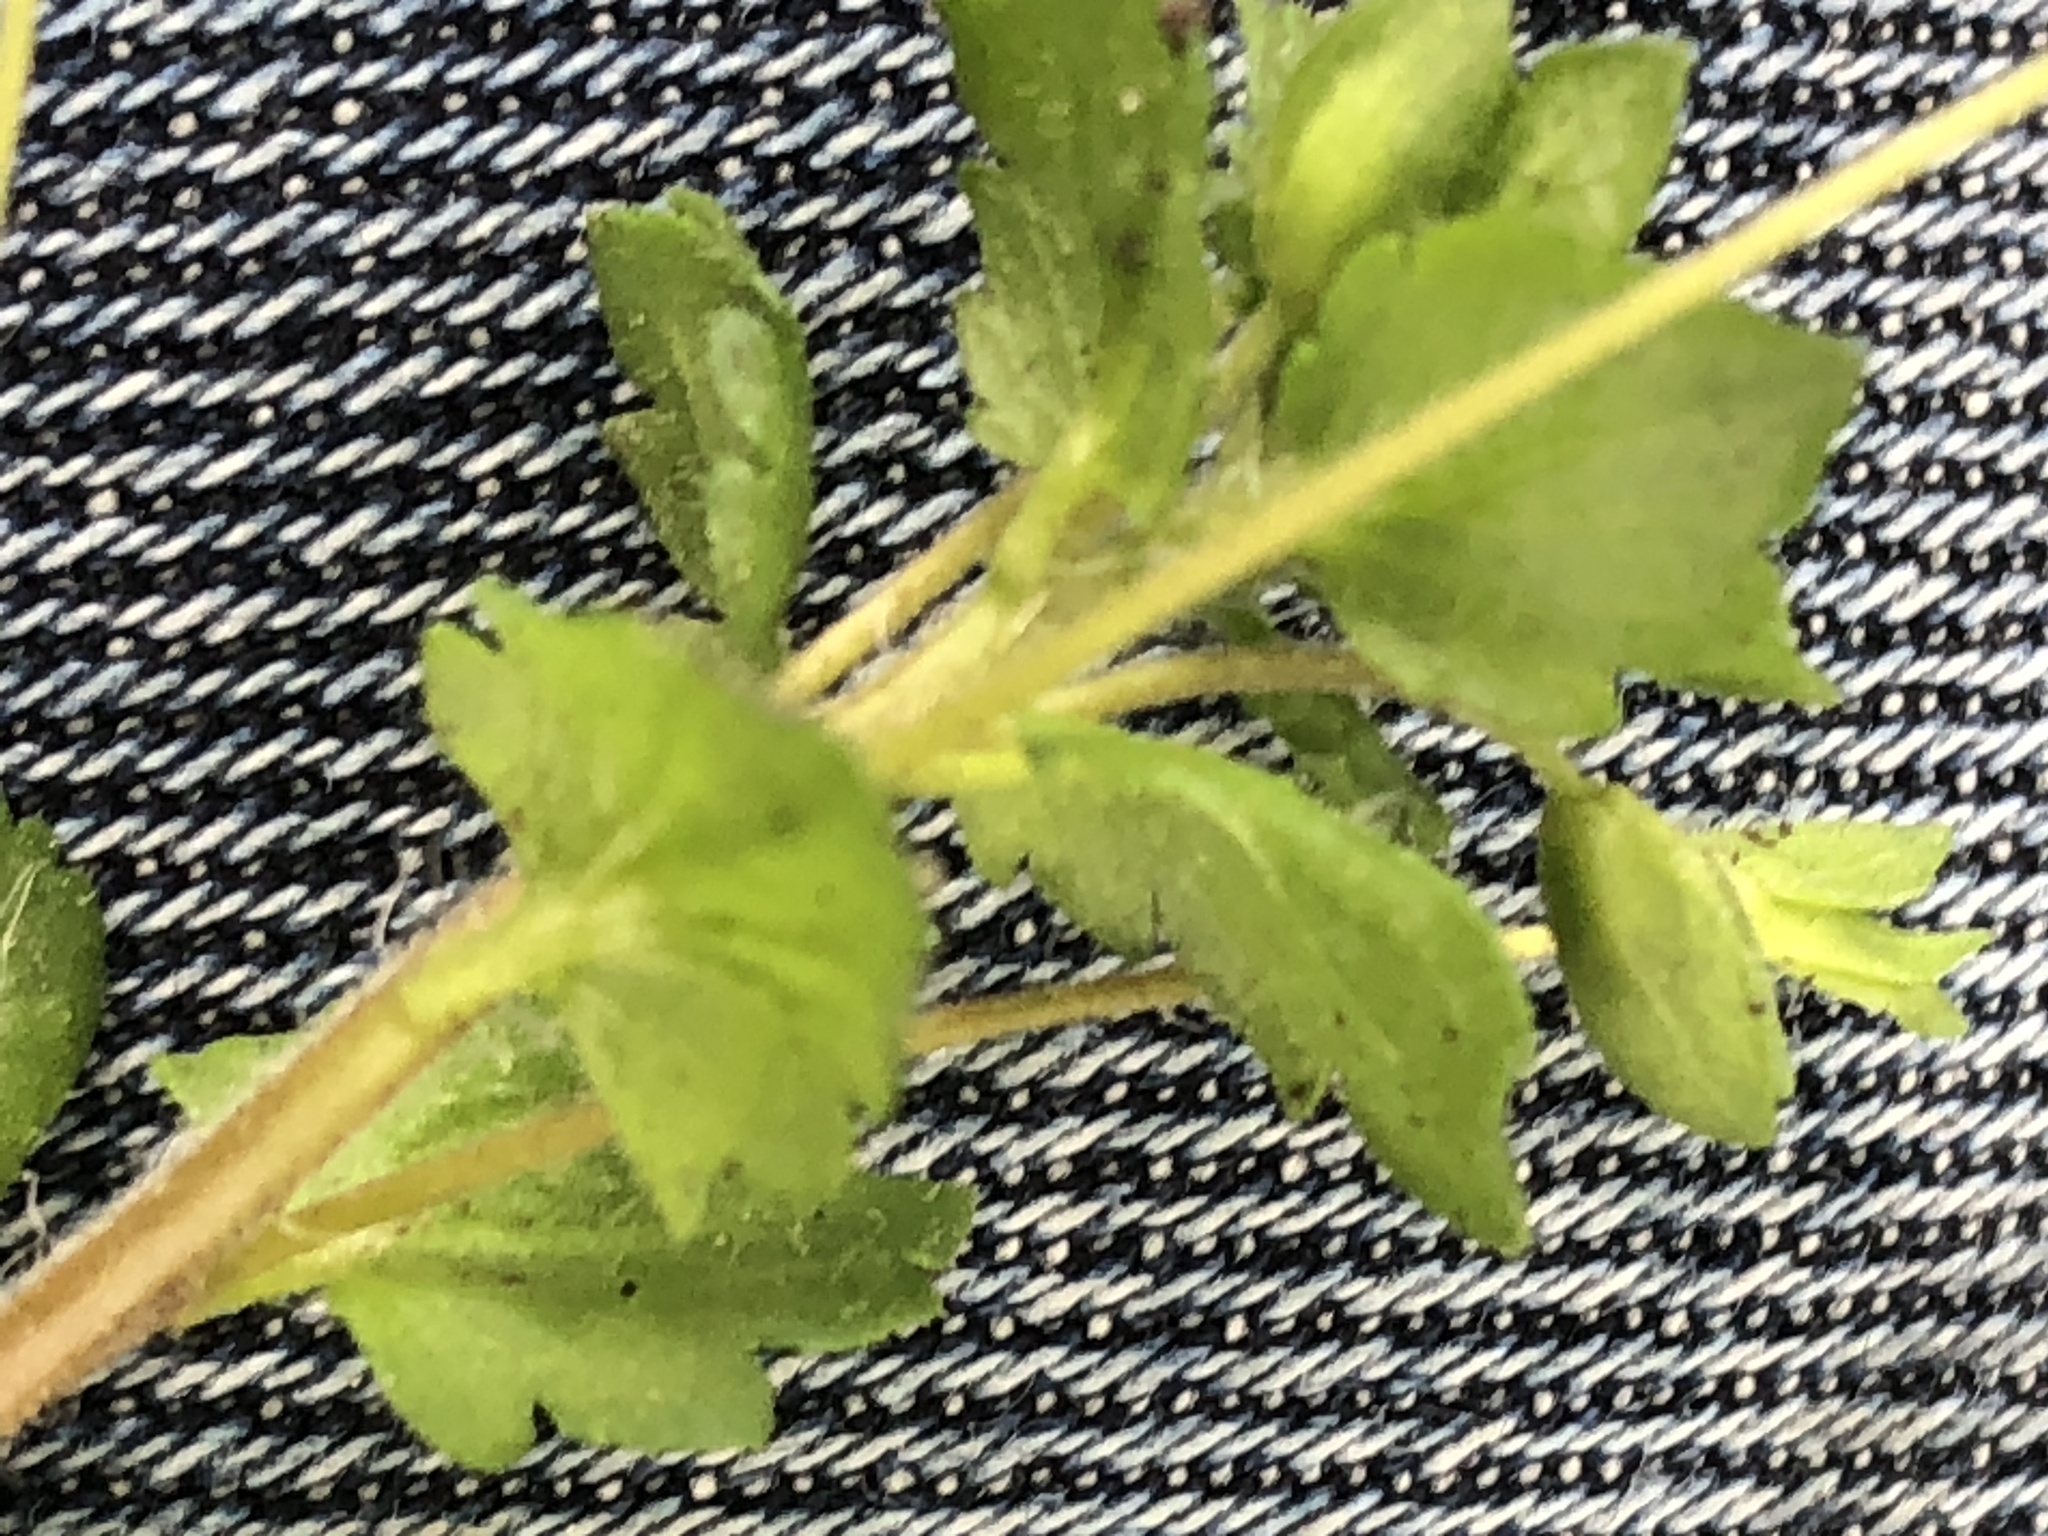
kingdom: Plantae
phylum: Tracheophyta
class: Magnoliopsida
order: Lamiales
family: Plantaginaceae
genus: Veronica
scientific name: Veronica persica
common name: Common field-speedwell
